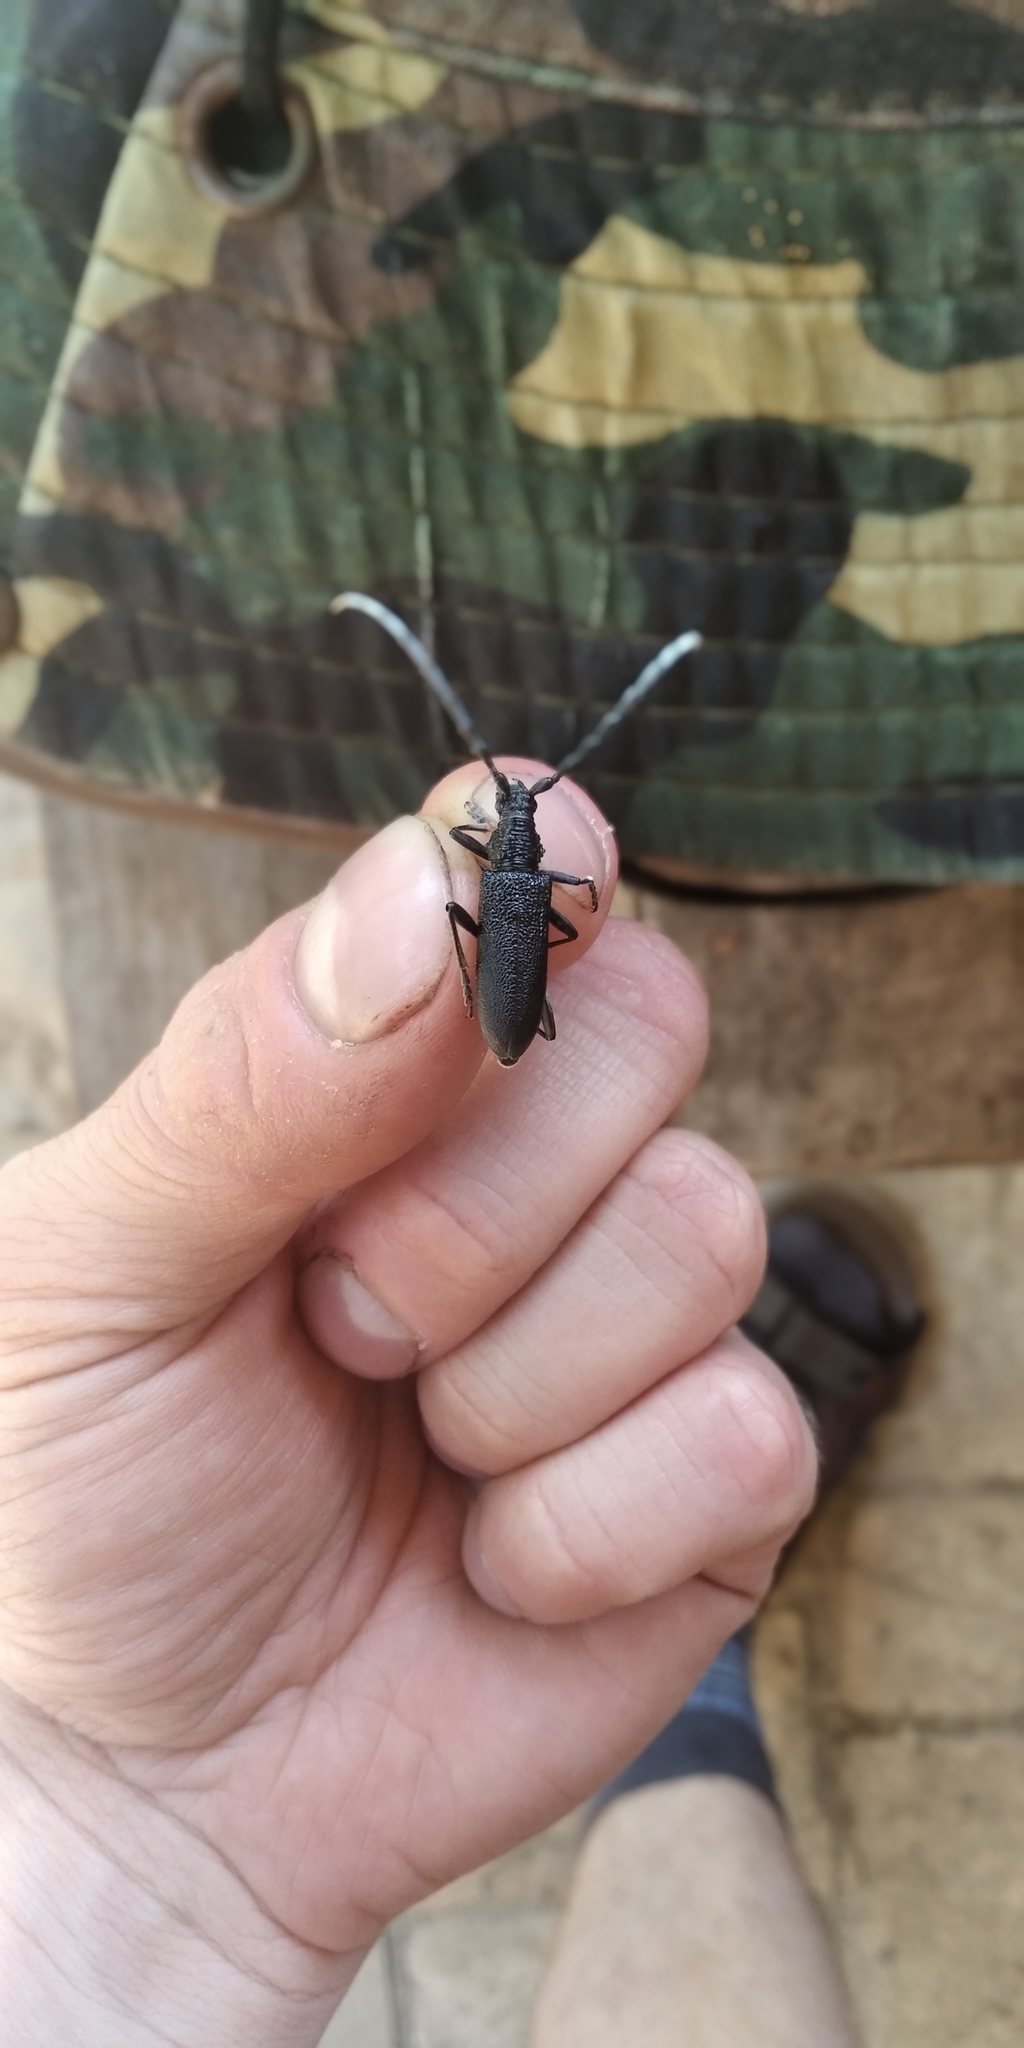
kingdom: Animalia
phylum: Arthropoda
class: Insecta
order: Coleoptera
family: Cerambycidae
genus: Cerambyx
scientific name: Cerambyx scopolii
